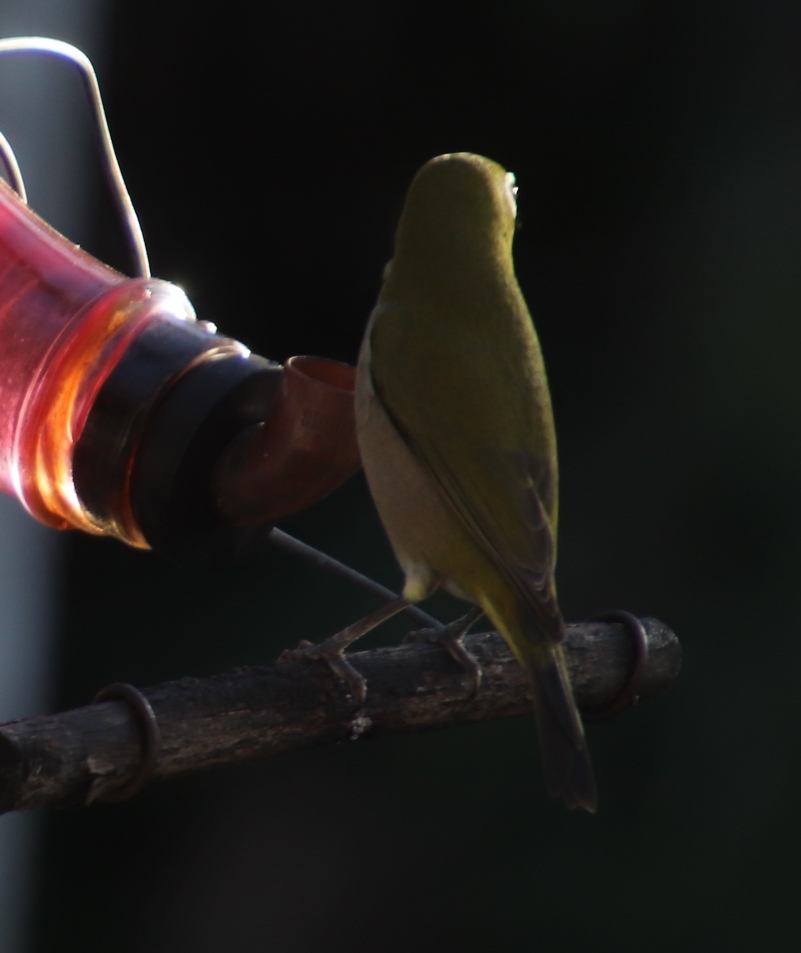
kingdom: Animalia
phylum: Chordata
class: Aves
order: Passeriformes
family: Zosteropidae
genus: Zosterops
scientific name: Zosterops virens
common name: Cape white-eye
